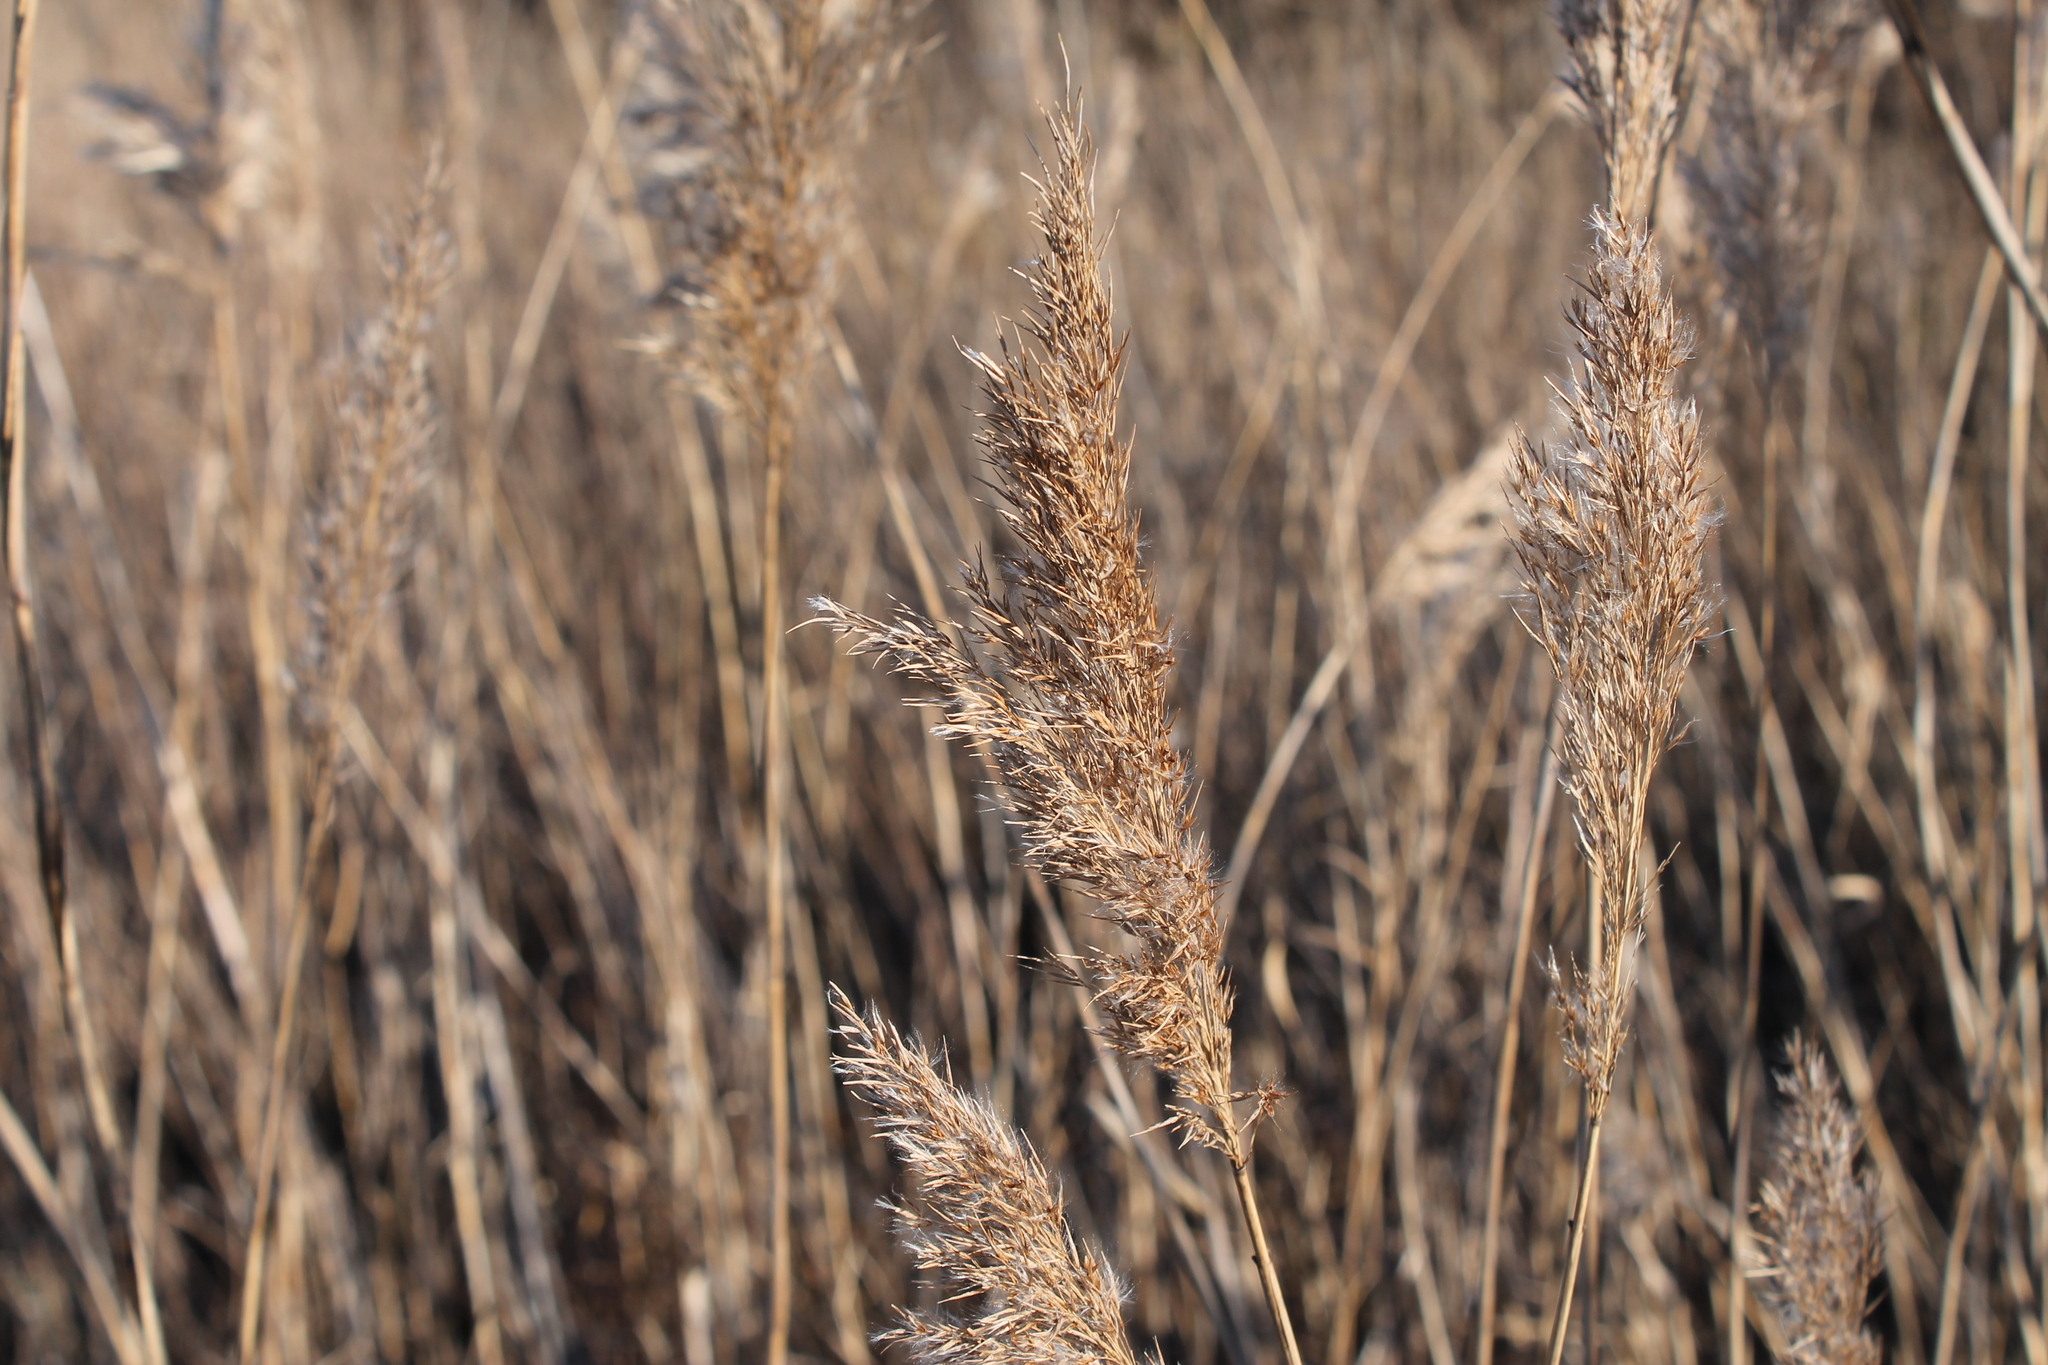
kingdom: Plantae
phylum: Tracheophyta
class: Liliopsida
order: Poales
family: Poaceae
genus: Sorghastrum
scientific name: Sorghastrum nutans
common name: Indian grass
